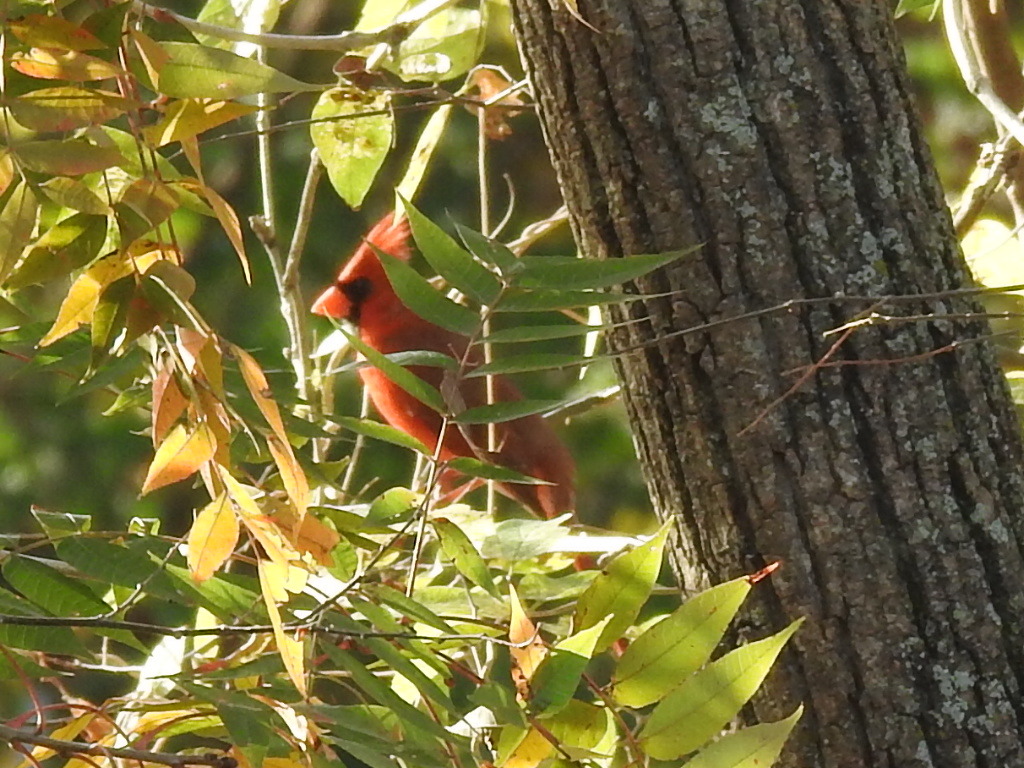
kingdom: Animalia
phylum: Chordata
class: Aves
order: Passeriformes
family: Cardinalidae
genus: Cardinalis
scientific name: Cardinalis cardinalis
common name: Northern cardinal
